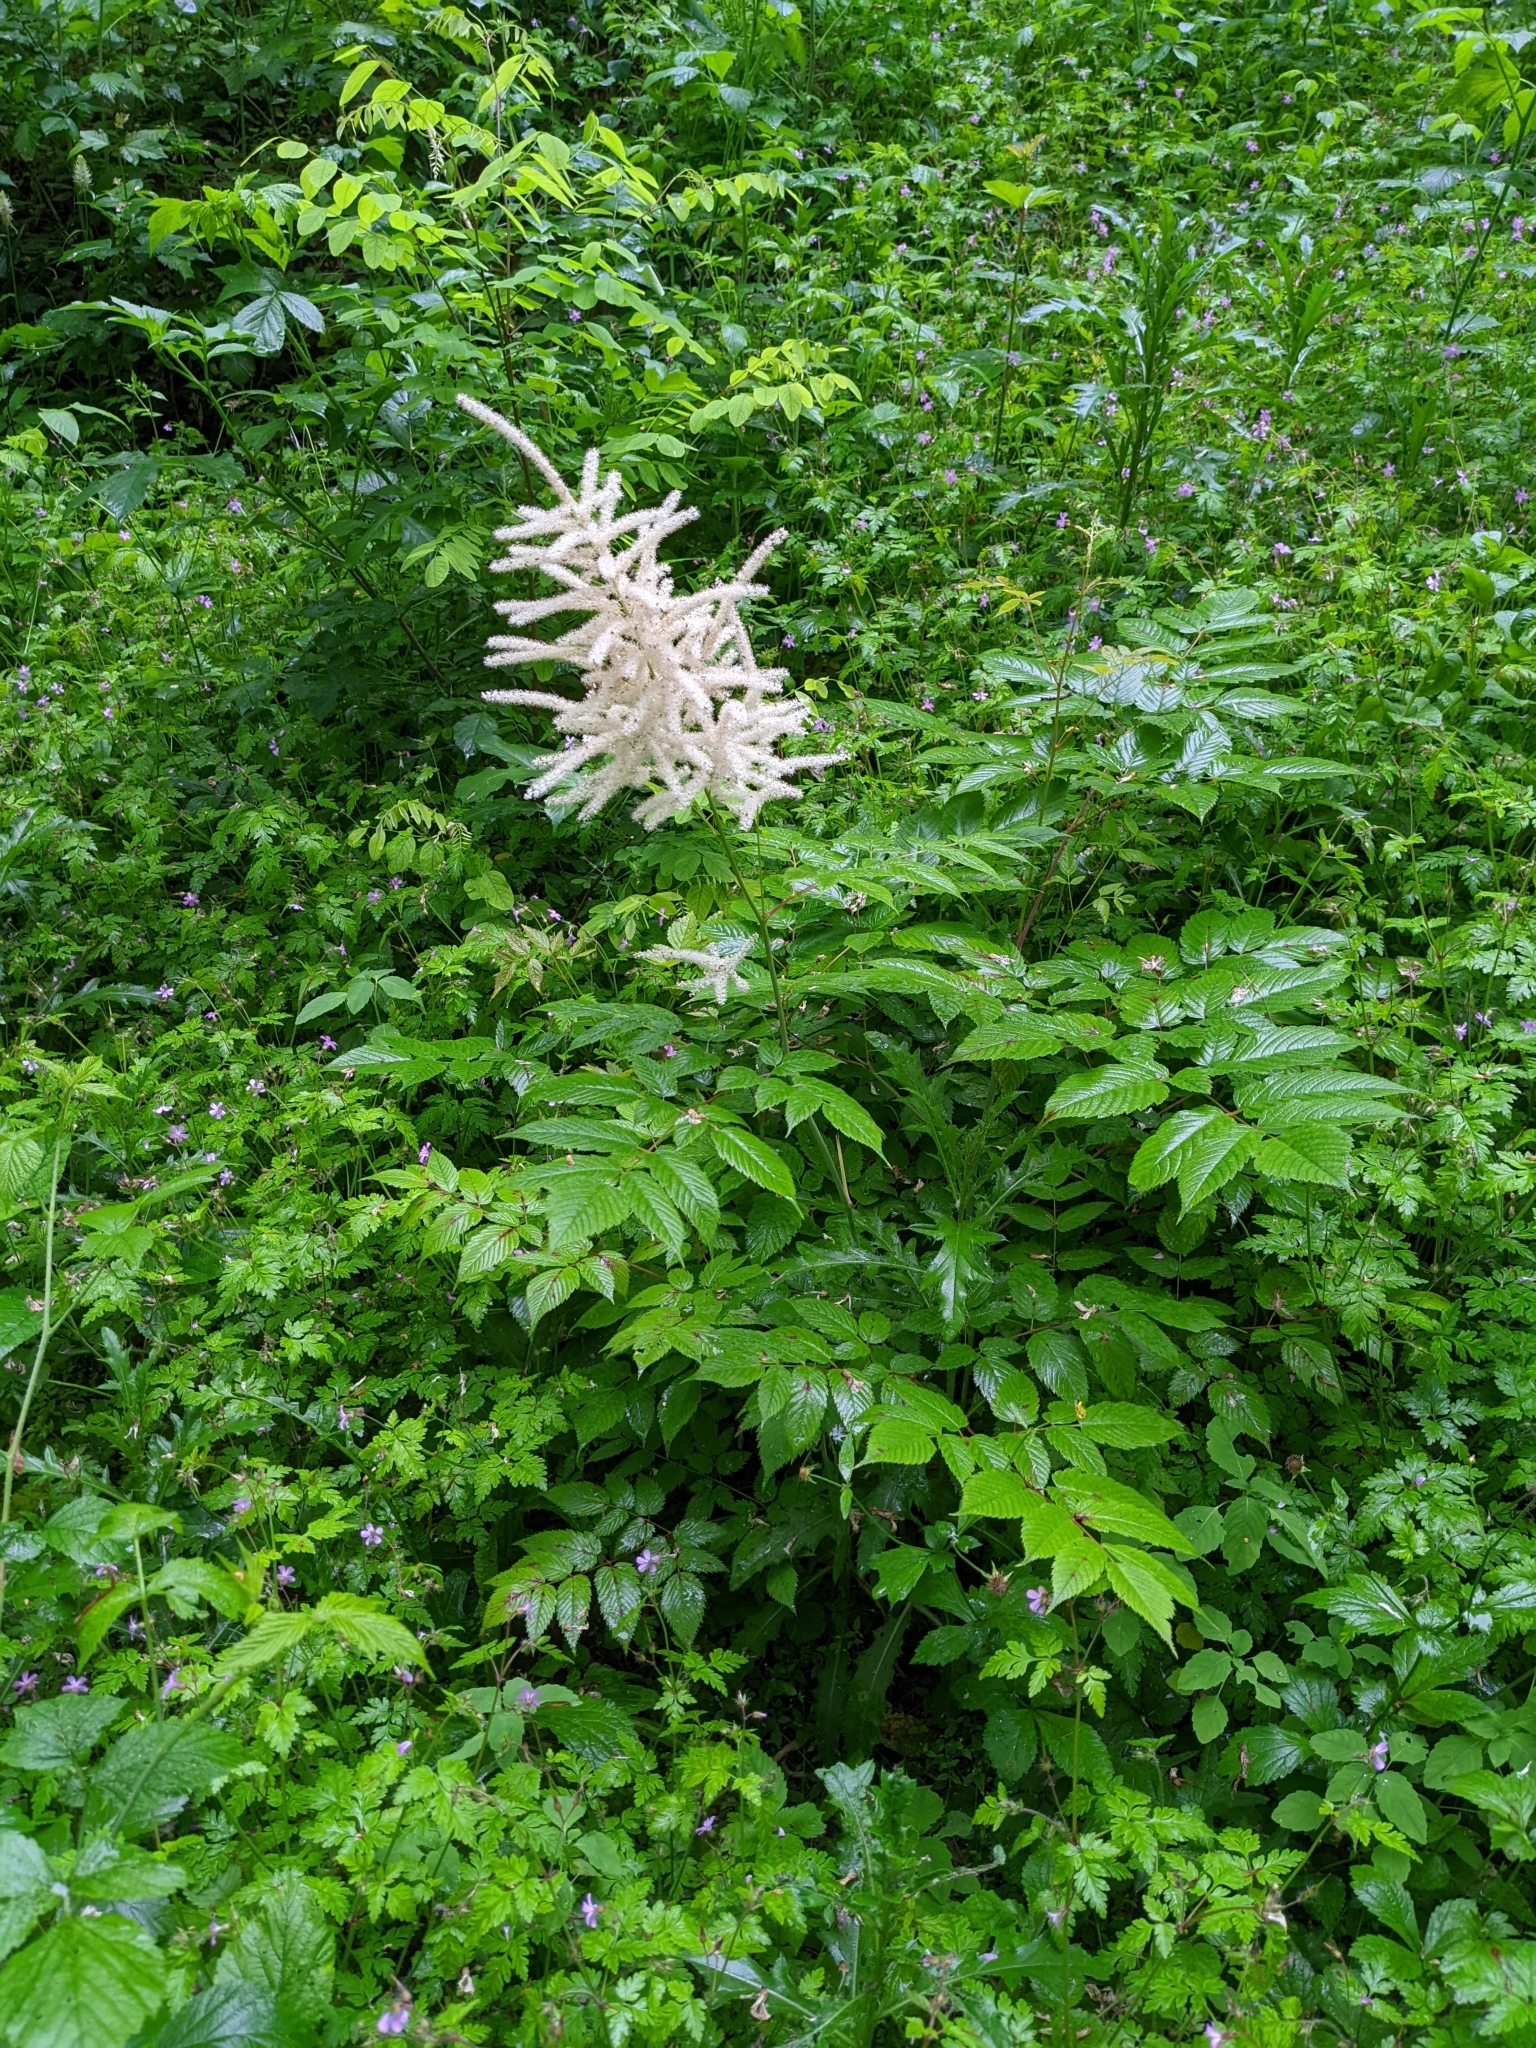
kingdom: Plantae
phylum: Tracheophyta
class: Magnoliopsida
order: Rosales
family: Rosaceae
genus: Aruncus
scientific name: Aruncus dioicus
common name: Buck's-beard
